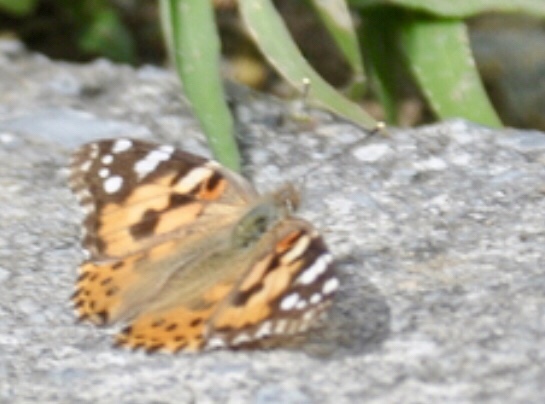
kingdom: Animalia
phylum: Arthropoda
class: Insecta
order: Lepidoptera
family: Nymphalidae
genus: Vanessa
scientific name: Vanessa cardui
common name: Painted lady
